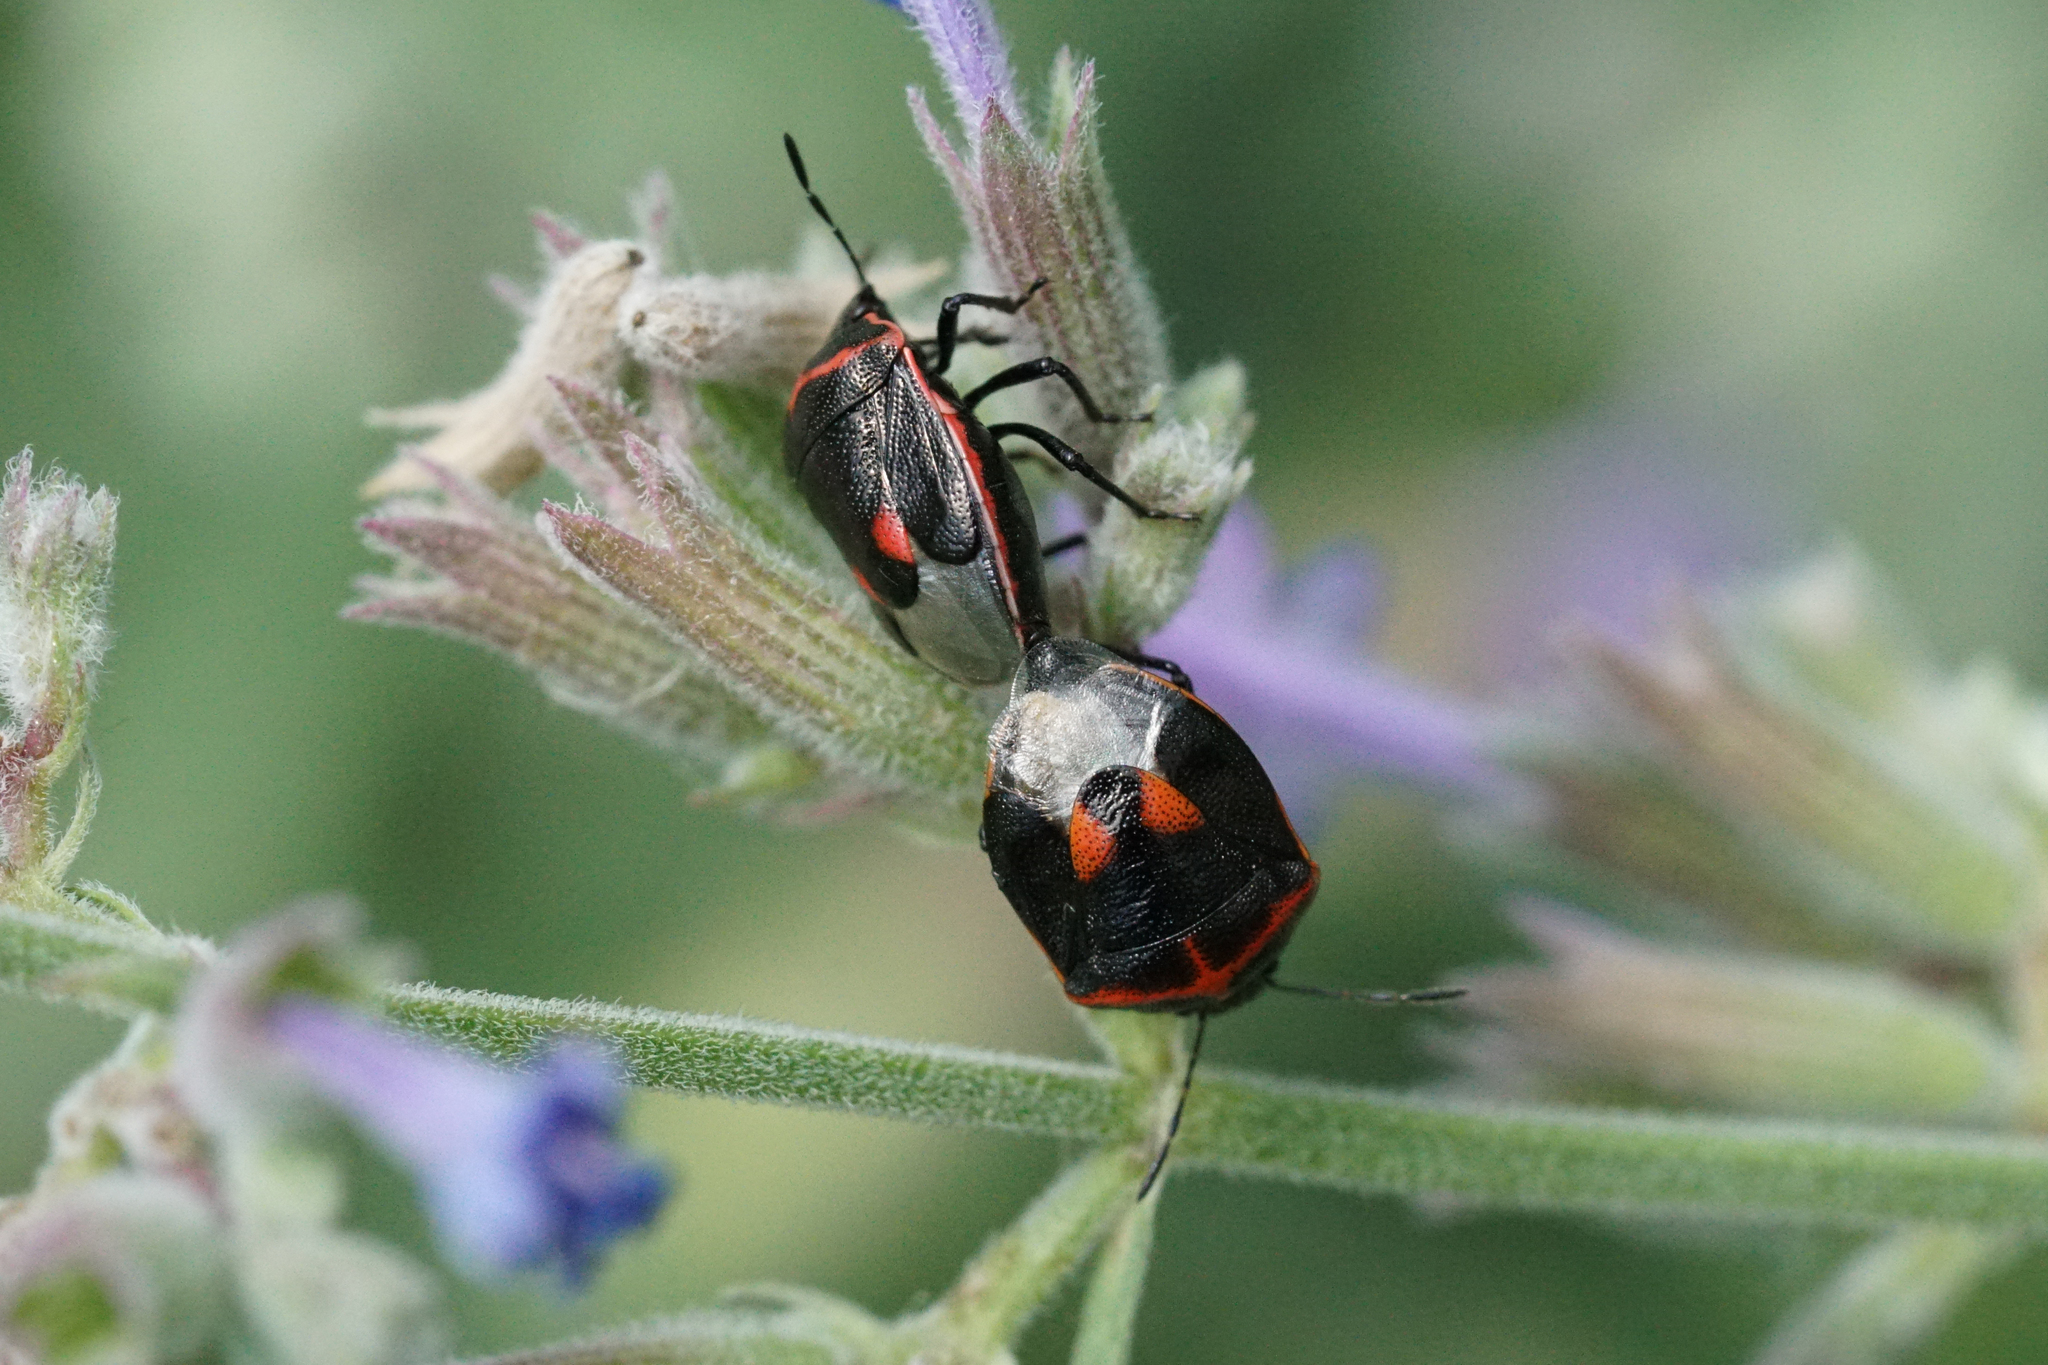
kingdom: Animalia
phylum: Arthropoda
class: Insecta
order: Hemiptera
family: Pentatomidae
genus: Cosmopepla
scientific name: Cosmopepla lintneriana
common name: Twice-stabbed stink bug
